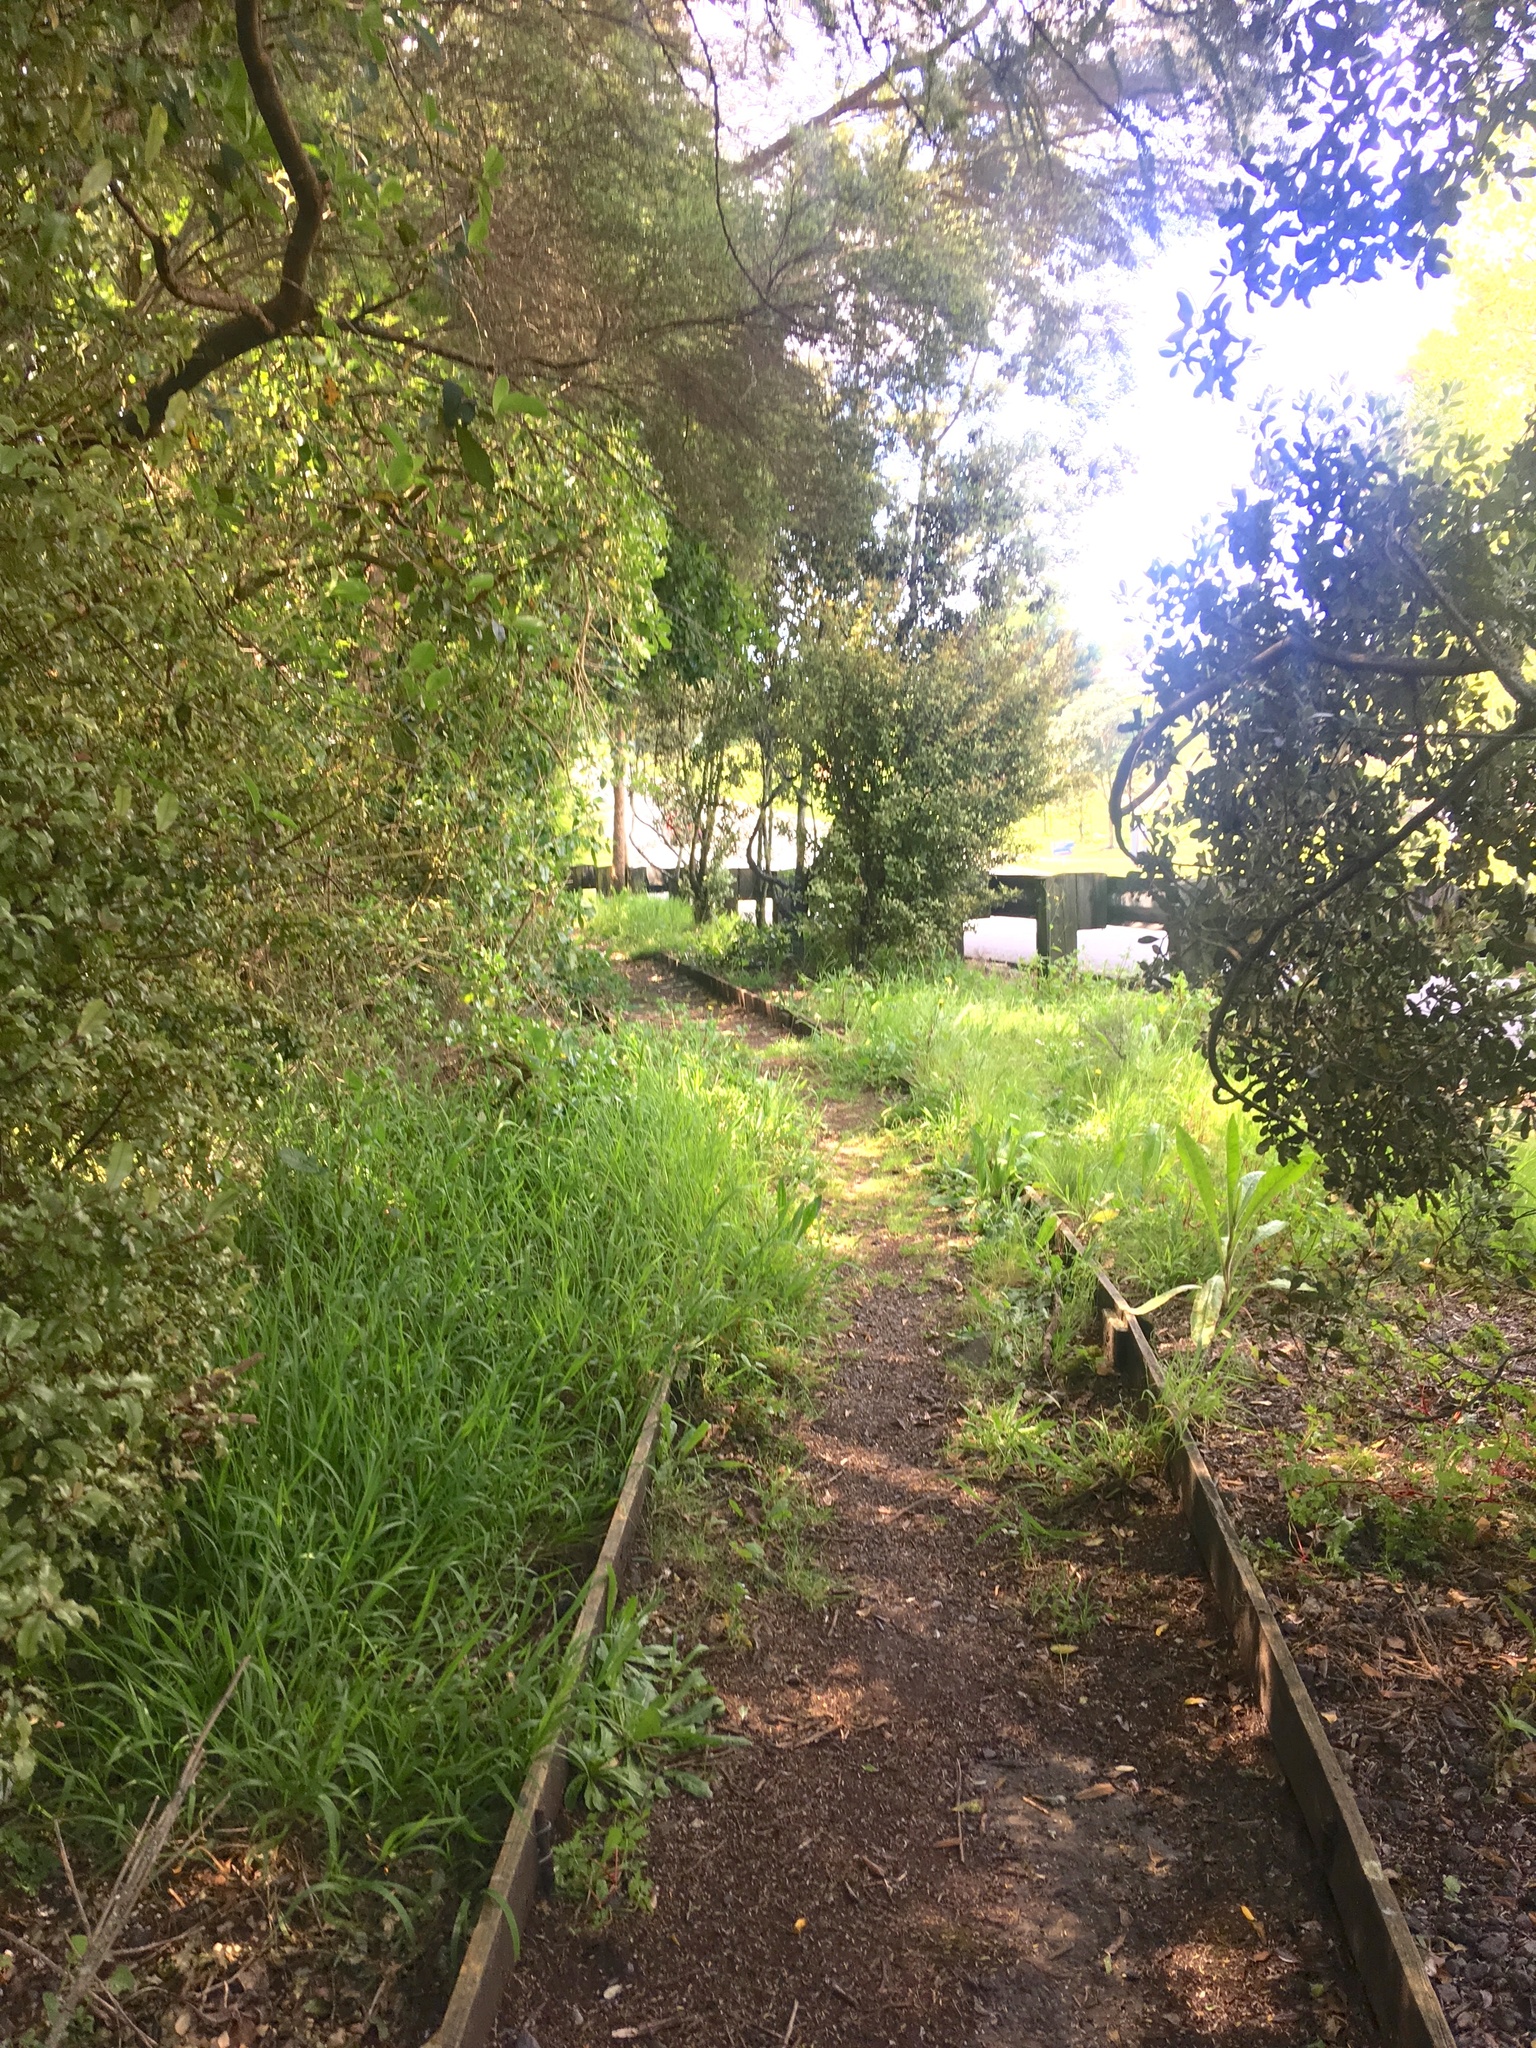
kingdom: Plantae
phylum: Tracheophyta
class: Magnoliopsida
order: Ericales
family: Primulaceae
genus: Myrsine
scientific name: Myrsine australis
